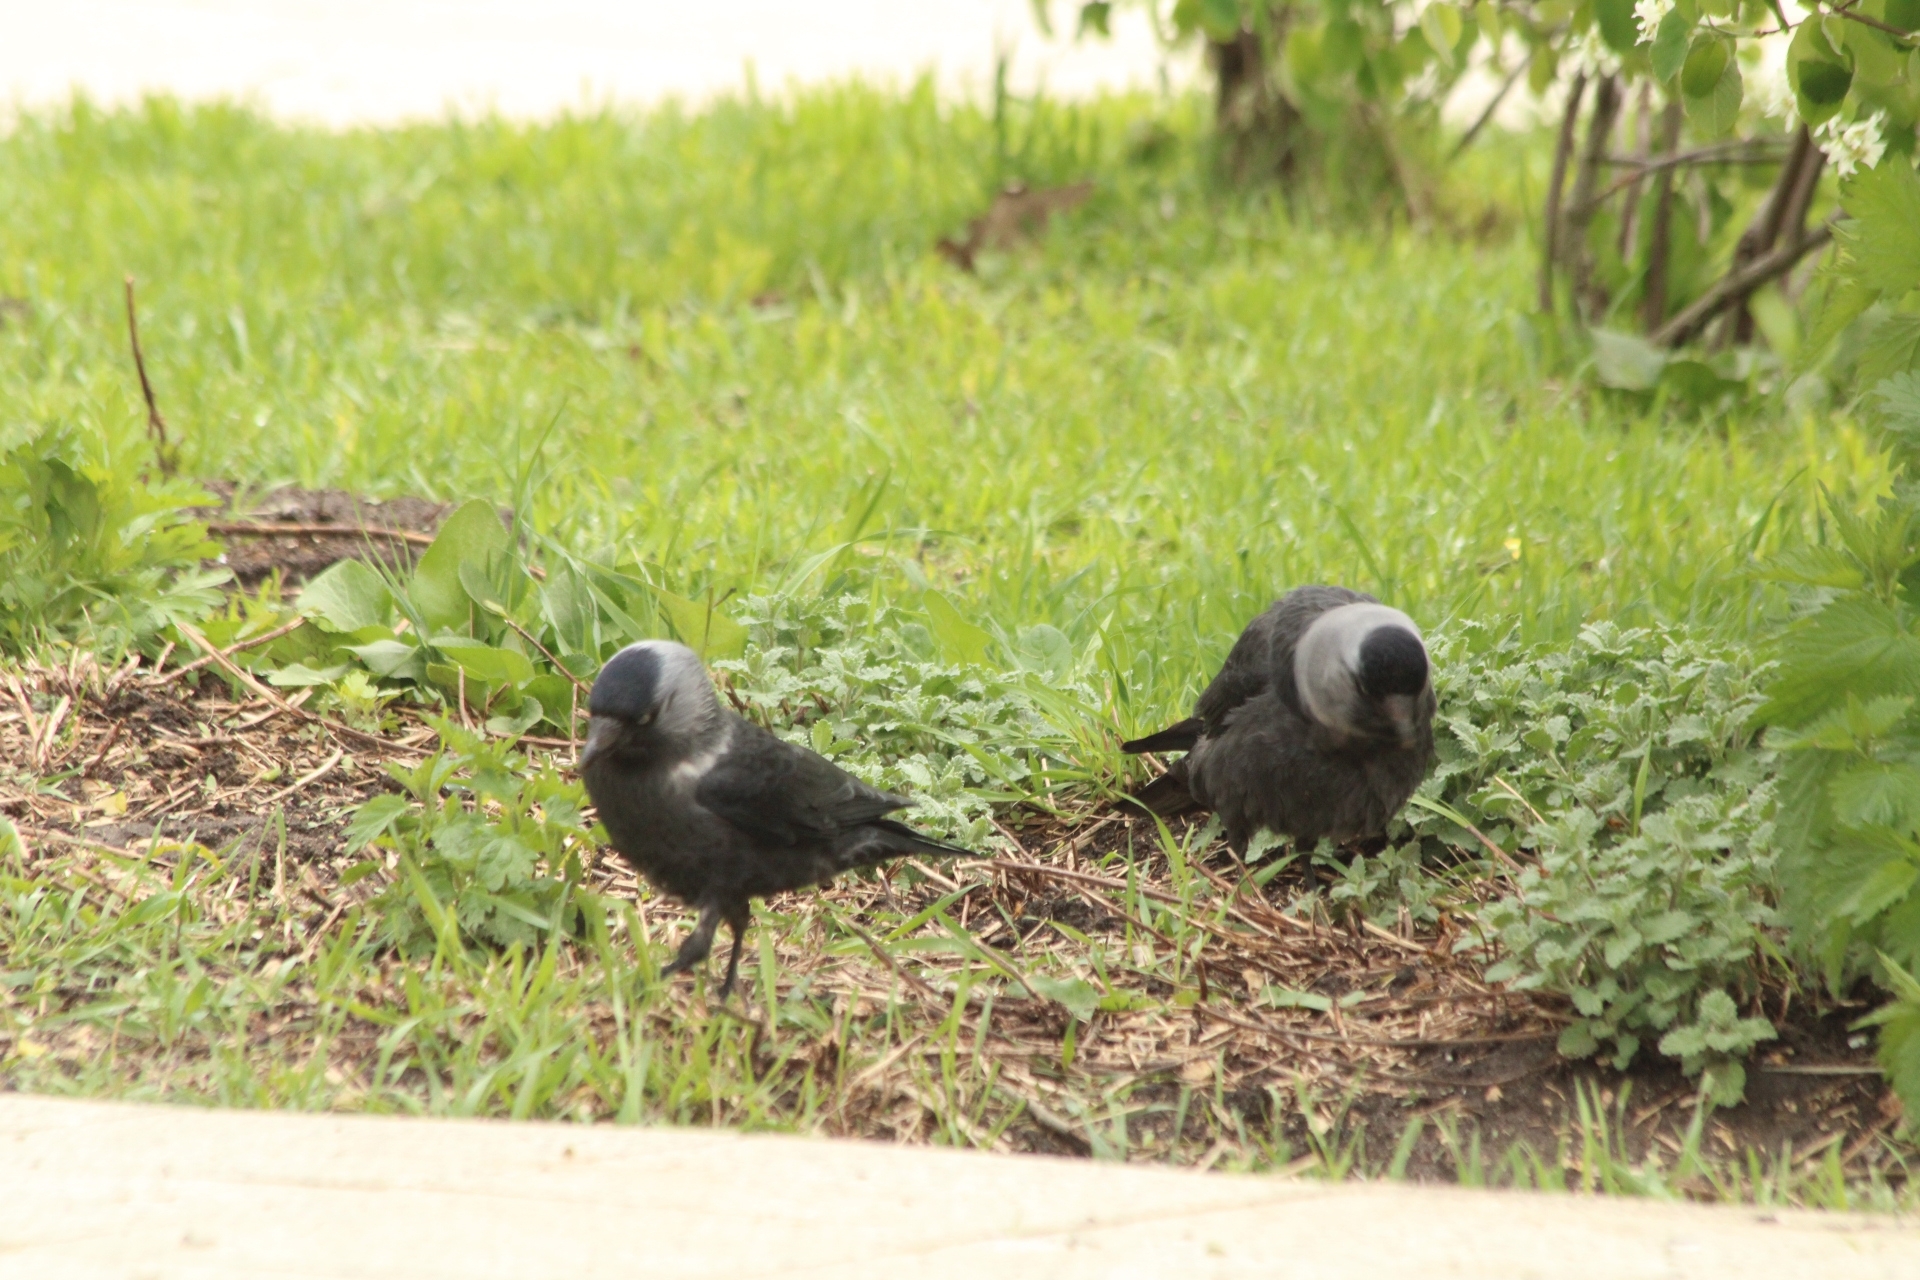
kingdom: Animalia
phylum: Chordata
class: Aves
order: Passeriformes
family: Corvidae
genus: Coloeus
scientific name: Coloeus monedula
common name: Western jackdaw
